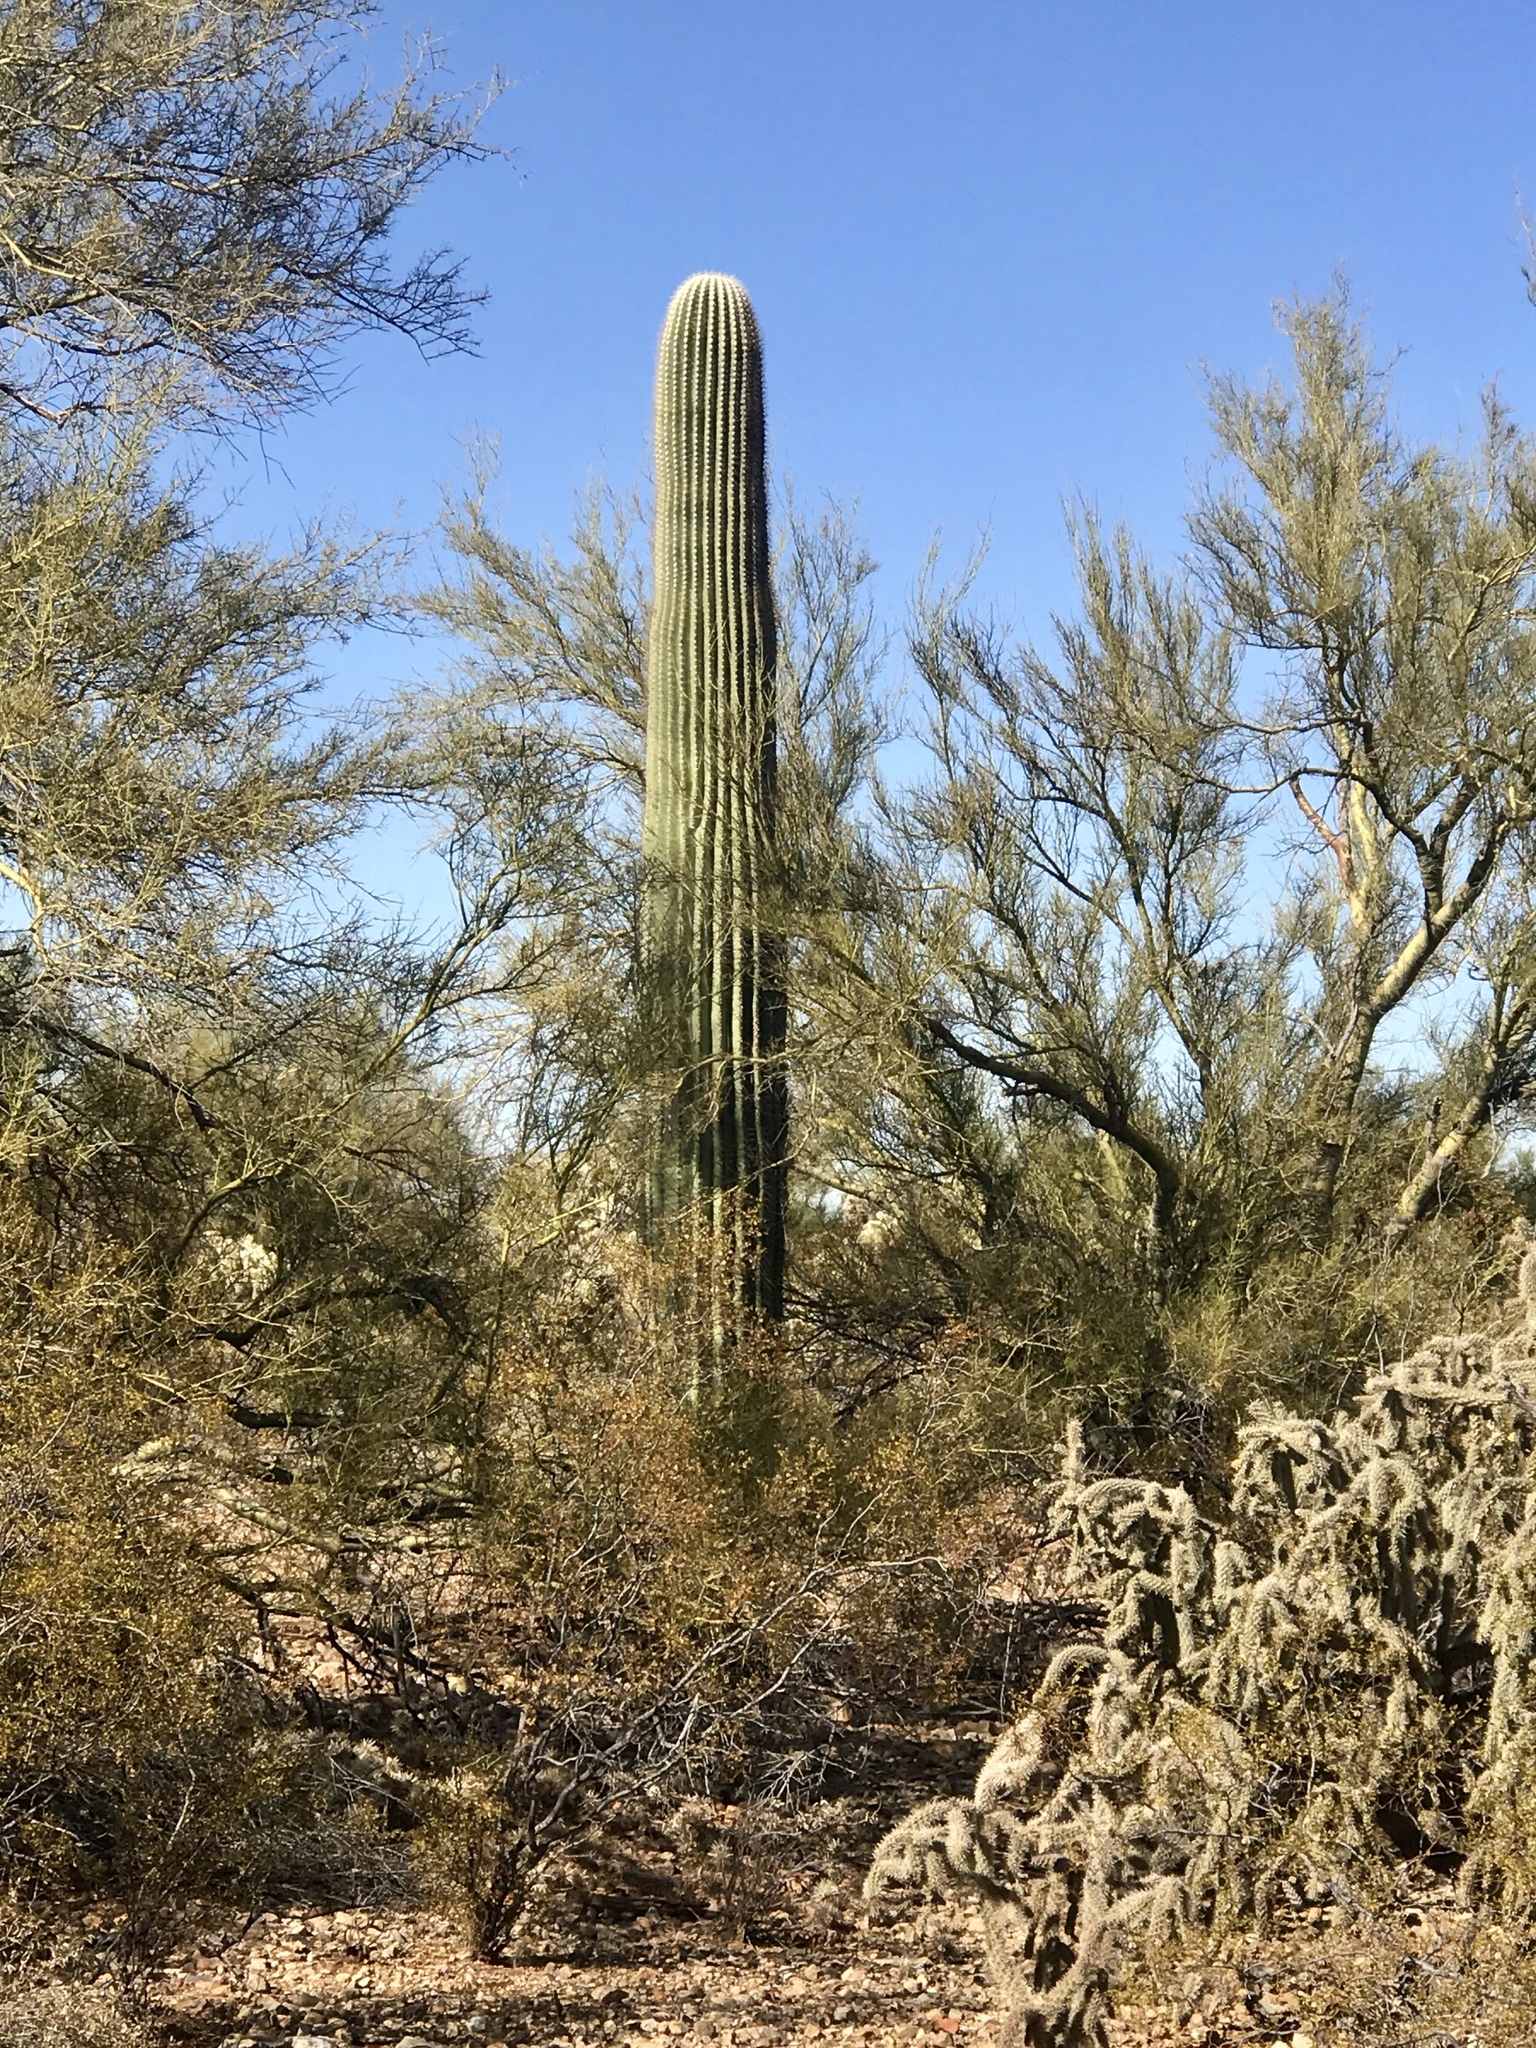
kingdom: Plantae
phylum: Tracheophyta
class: Magnoliopsida
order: Caryophyllales
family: Cactaceae
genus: Carnegiea
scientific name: Carnegiea gigantea
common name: Saguaro
